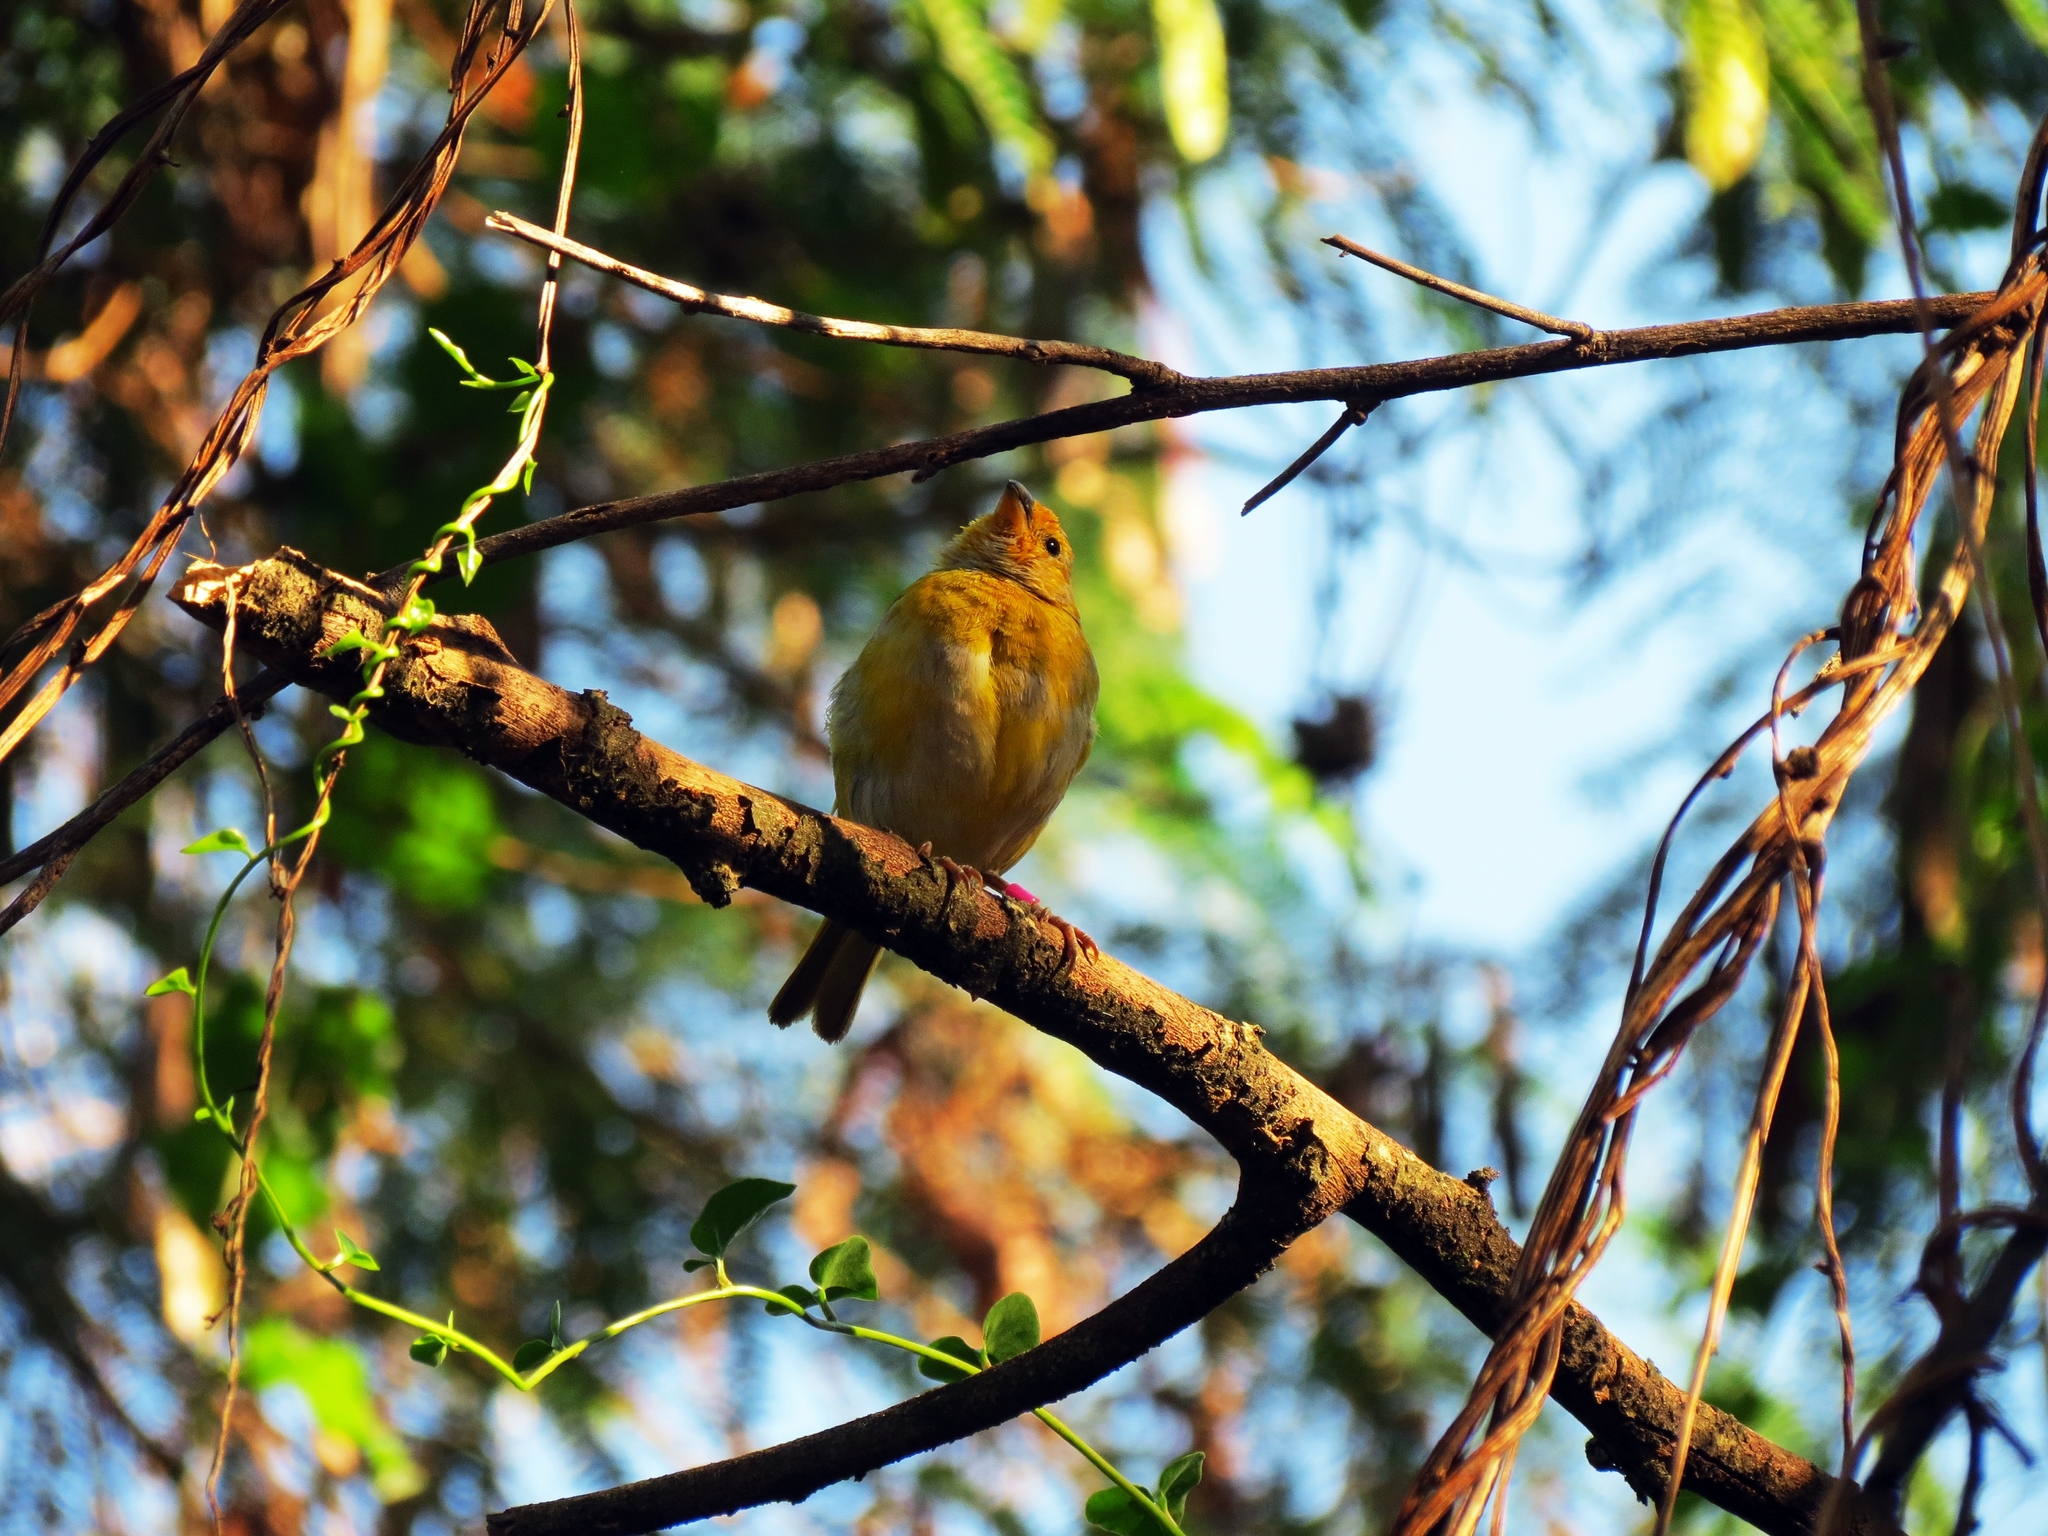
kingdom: Animalia
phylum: Chordata
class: Aves
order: Passeriformes
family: Thraupidae
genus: Sicalis
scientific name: Sicalis flaveola
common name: Saffron finch
